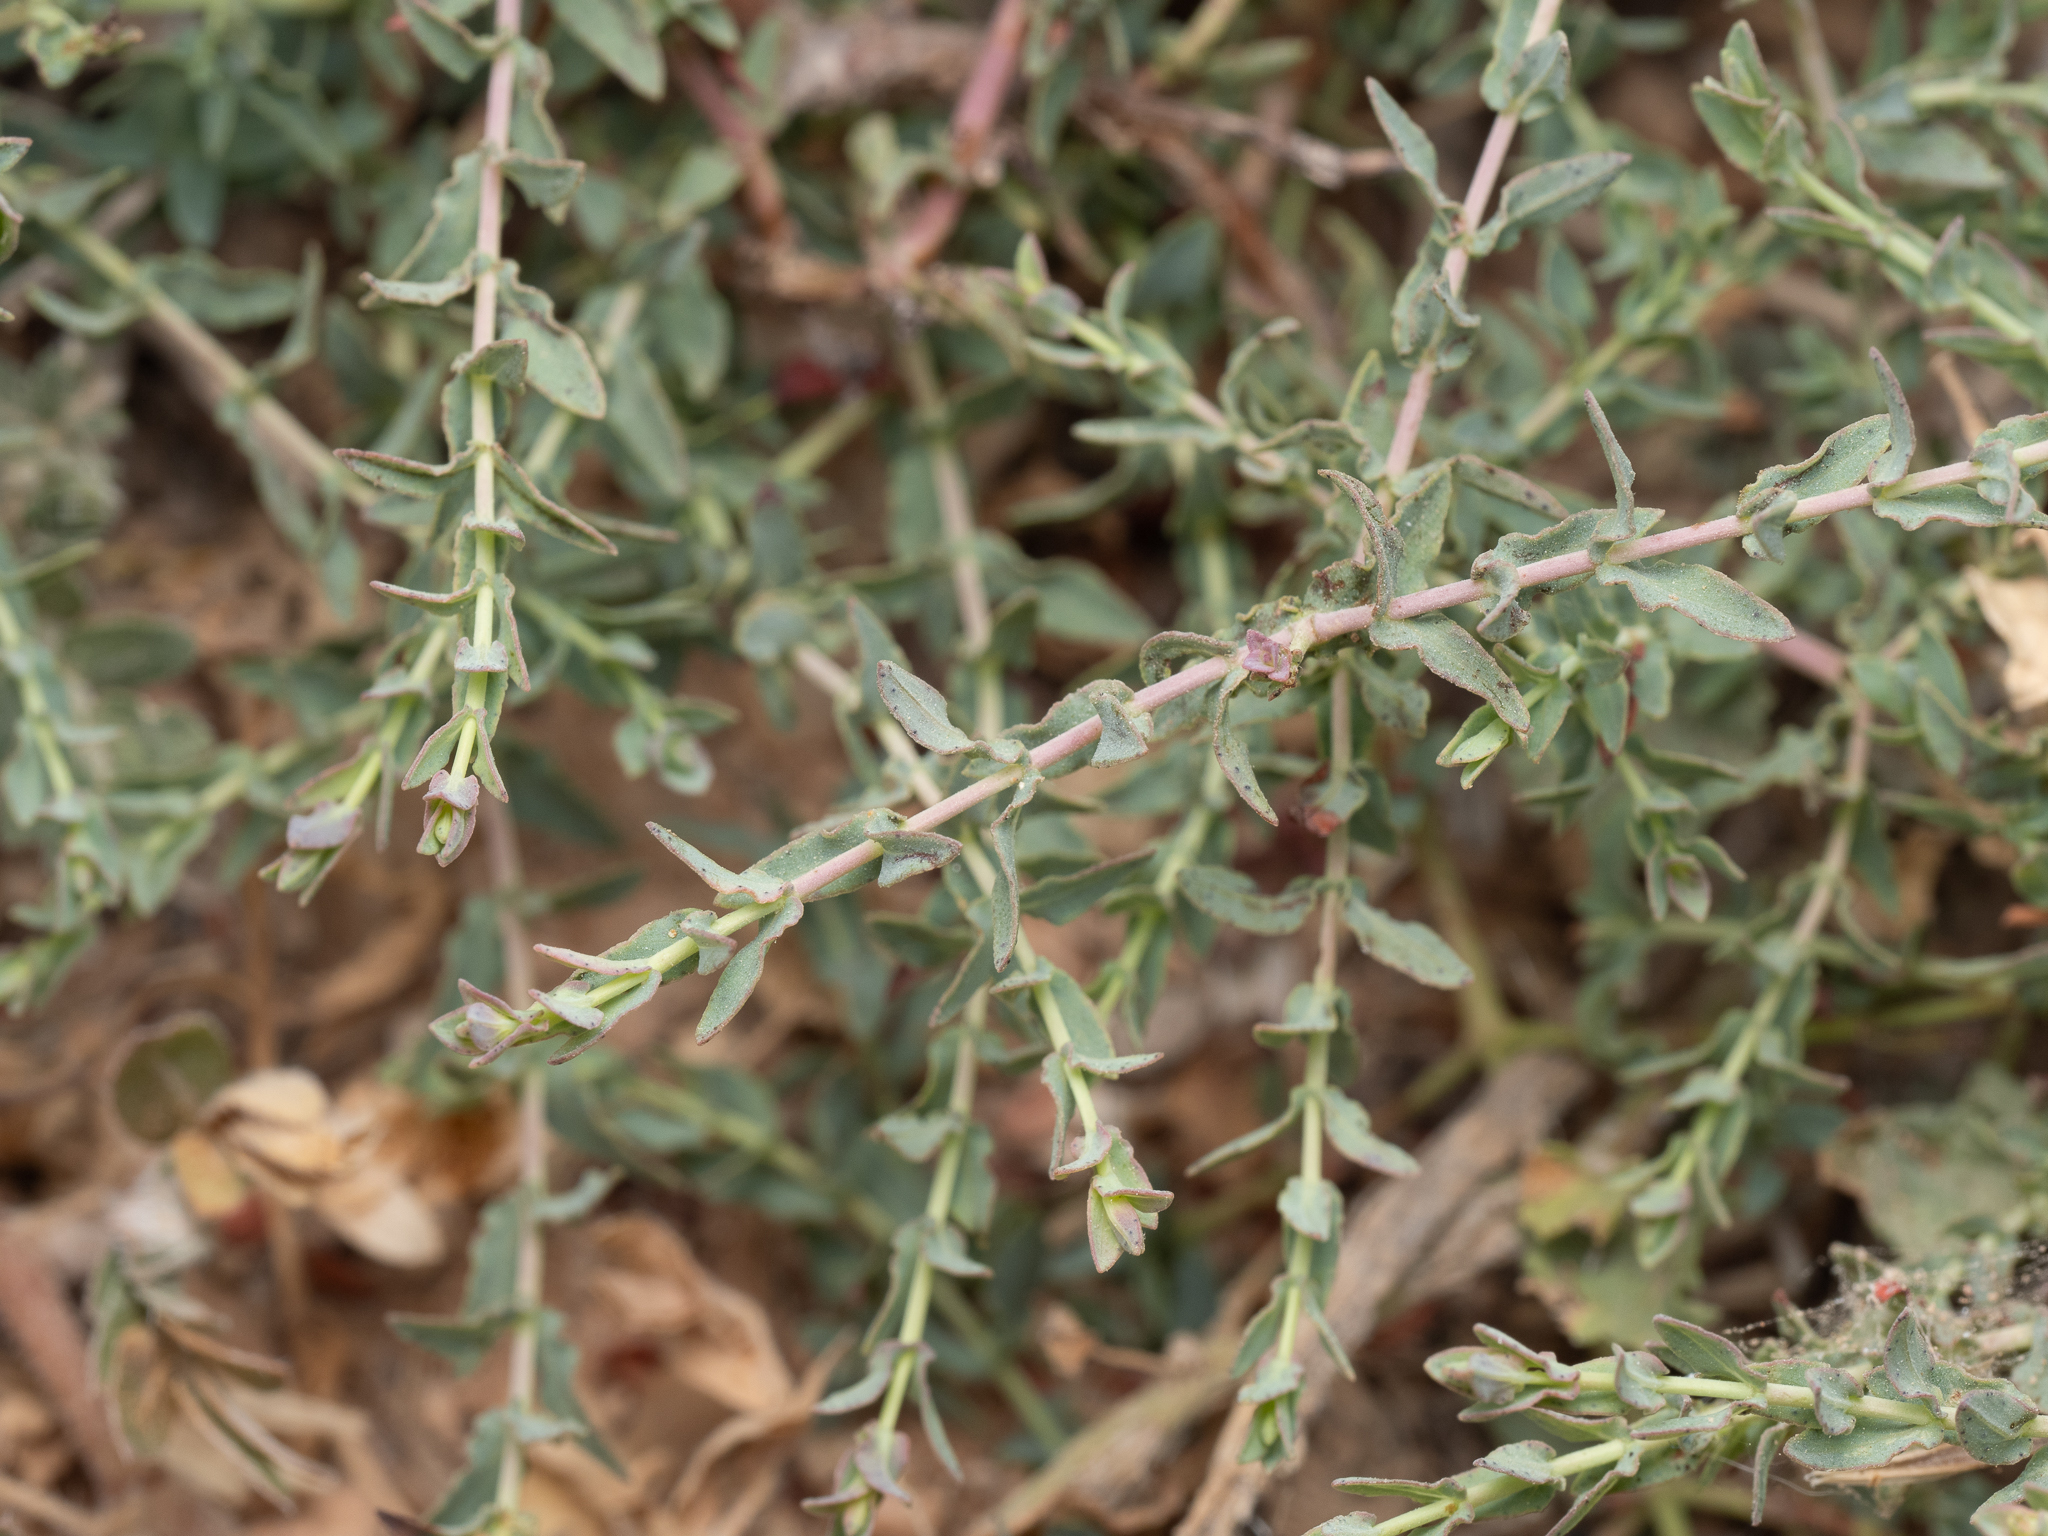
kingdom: Plantae
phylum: Tracheophyta
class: Magnoliopsida
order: Malpighiales
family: Hypericaceae
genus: Hypericum
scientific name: Hypericum triquetrifolium
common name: Tangled hypericum
